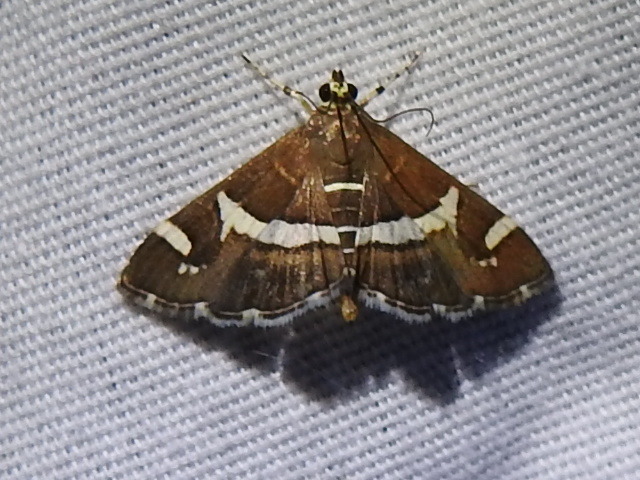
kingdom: Animalia
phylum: Arthropoda
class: Insecta
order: Lepidoptera
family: Crambidae
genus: Spoladea
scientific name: Spoladea recurvalis
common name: Beet webworm moth
